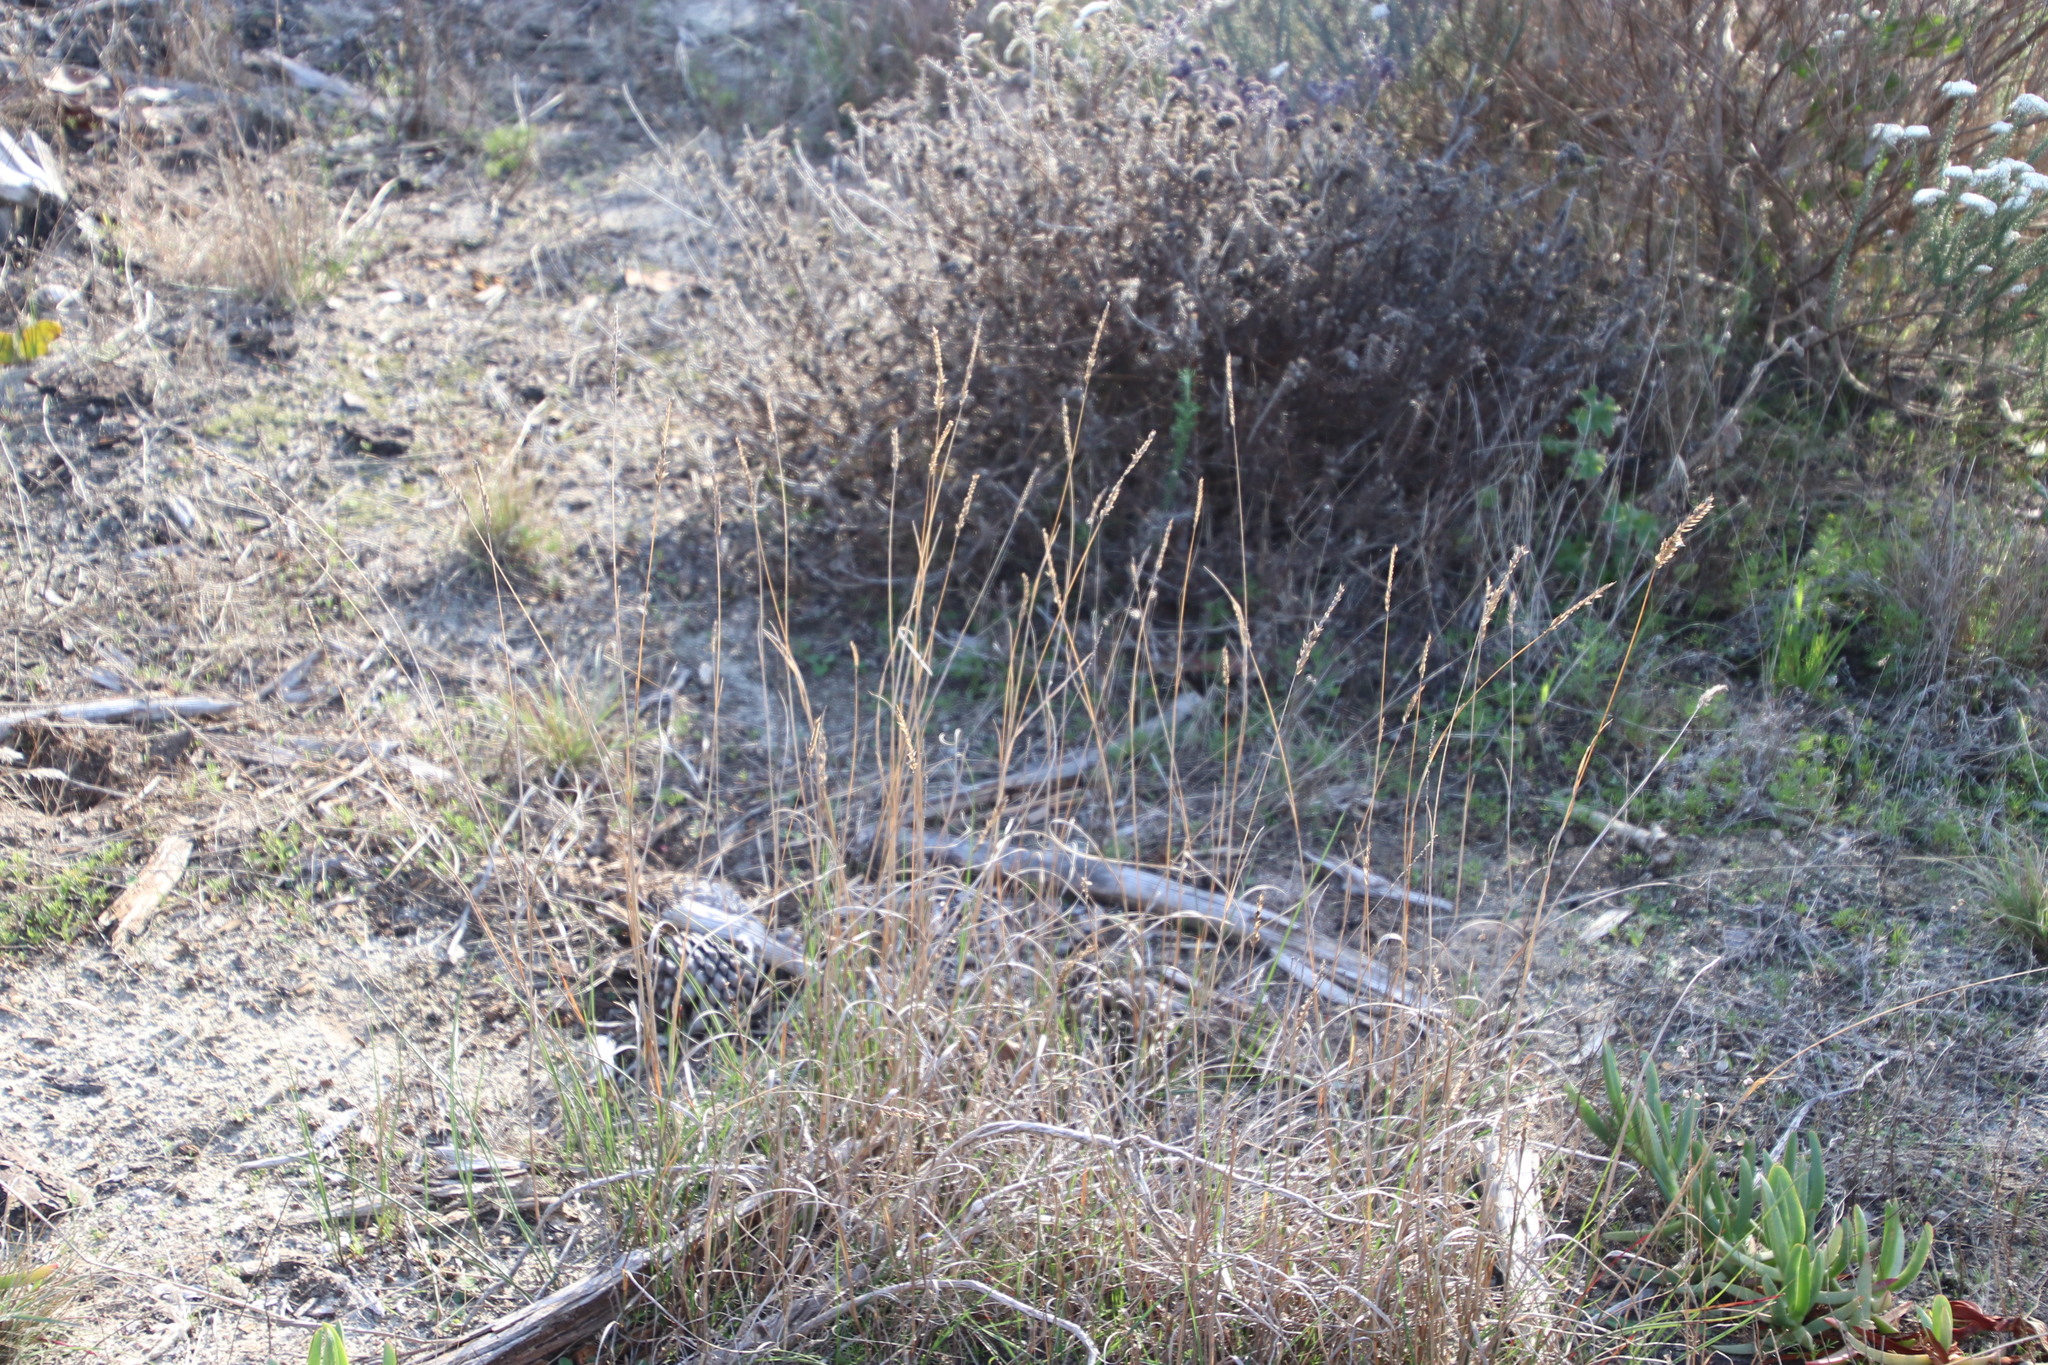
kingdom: Plantae
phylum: Tracheophyta
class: Liliopsida
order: Poales
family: Poaceae
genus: Tribolium
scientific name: Tribolium uniolae
